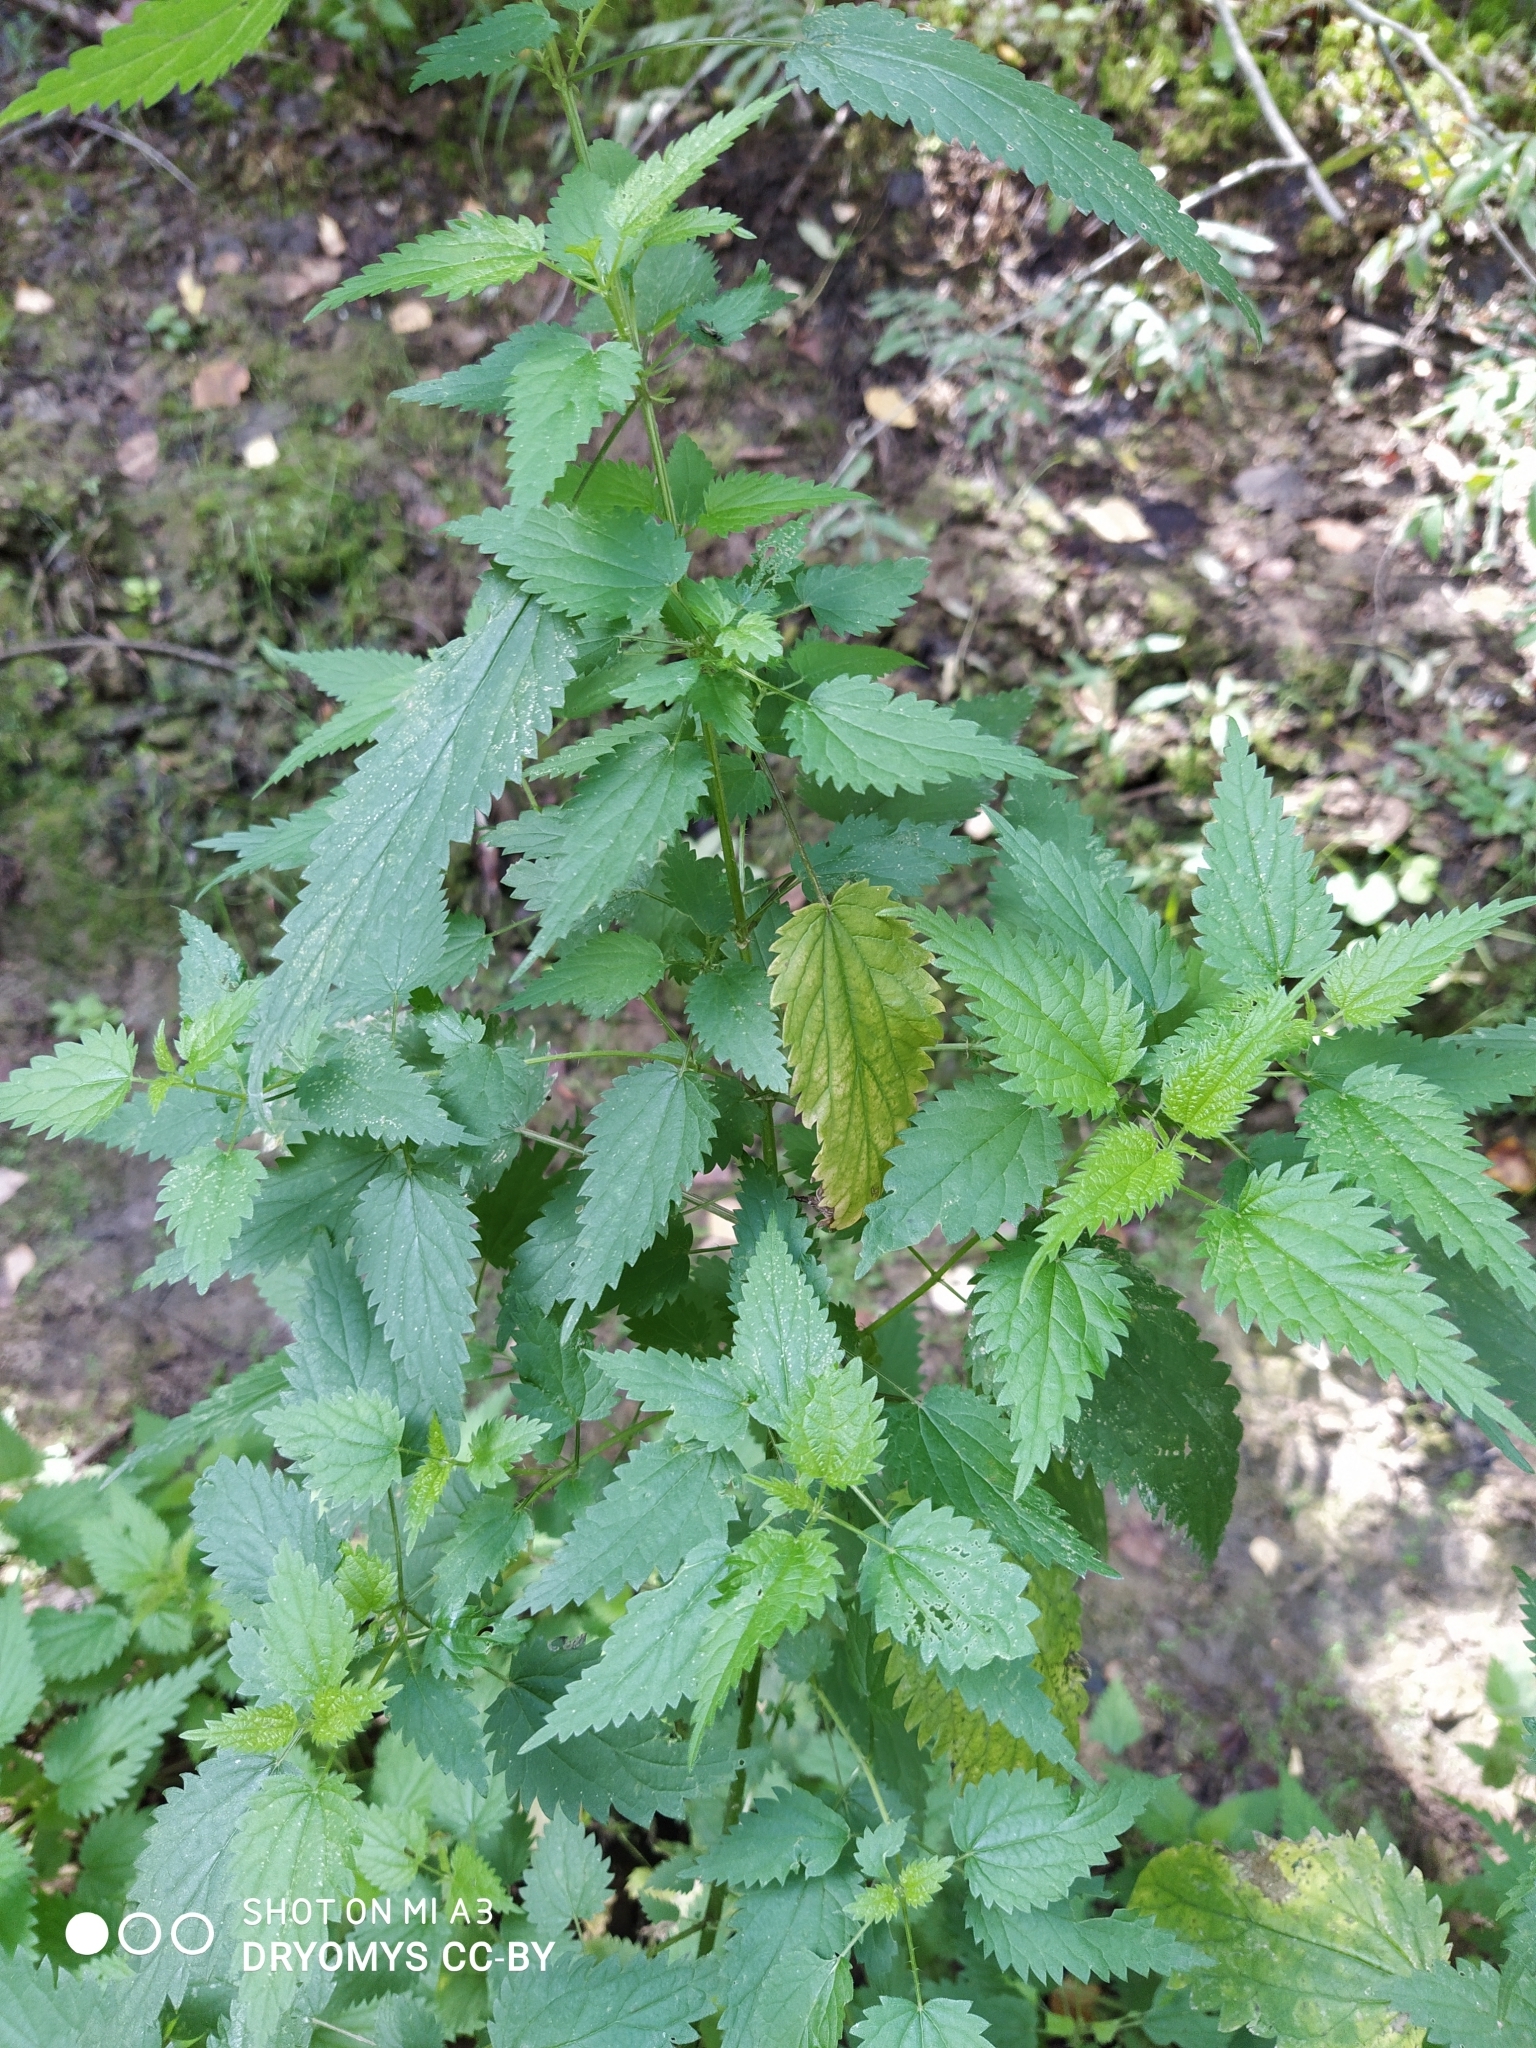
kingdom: Plantae
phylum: Tracheophyta
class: Magnoliopsida
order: Rosales
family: Urticaceae
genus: Urtica
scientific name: Urtica dioica
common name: Common nettle
